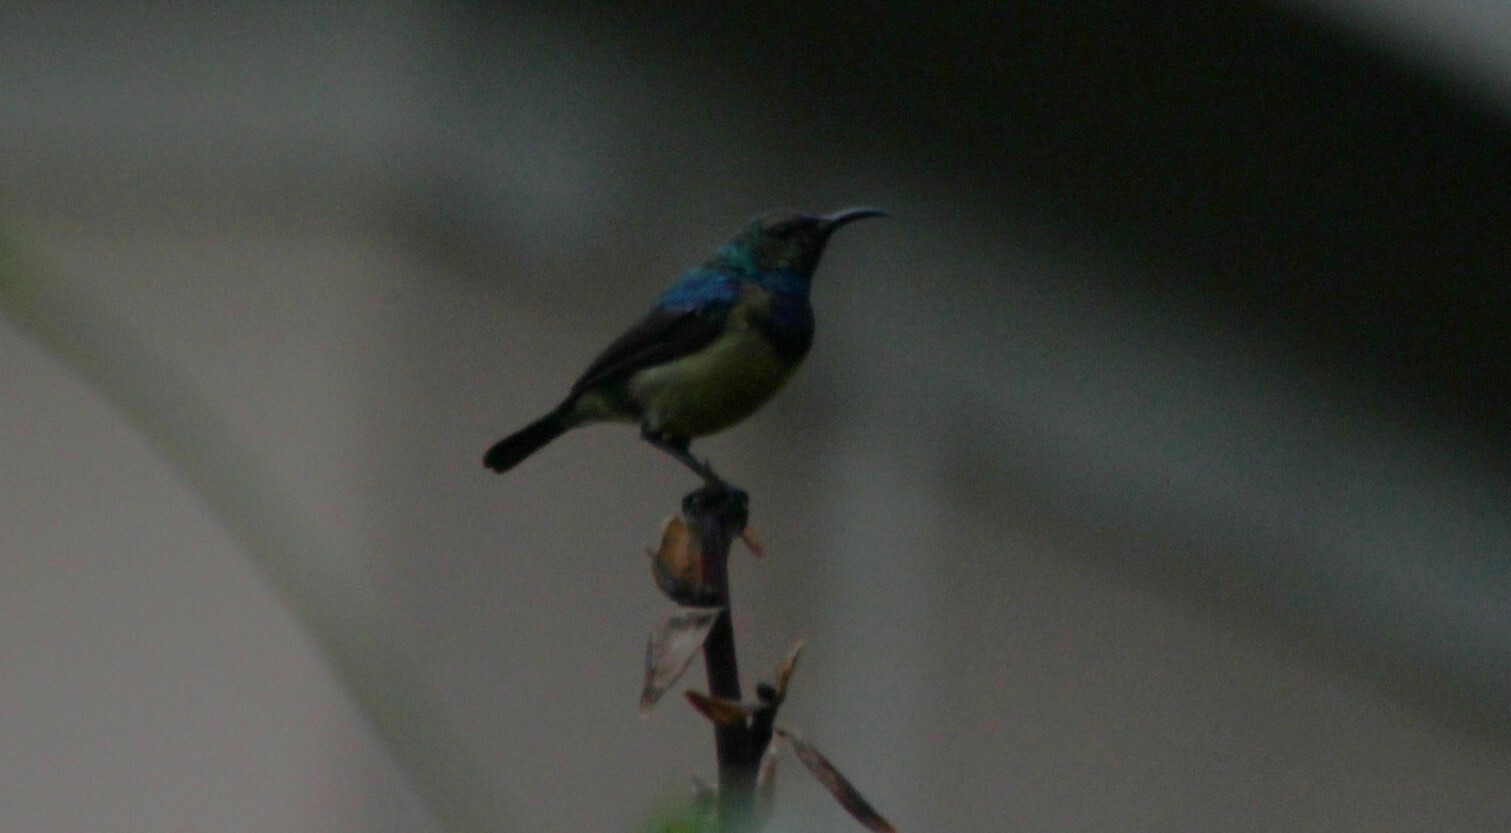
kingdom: Animalia
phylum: Chordata
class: Aves
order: Passeriformes
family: Nectariniidae
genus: Cinnyris
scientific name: Cinnyris venustus
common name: Variable sunbird
